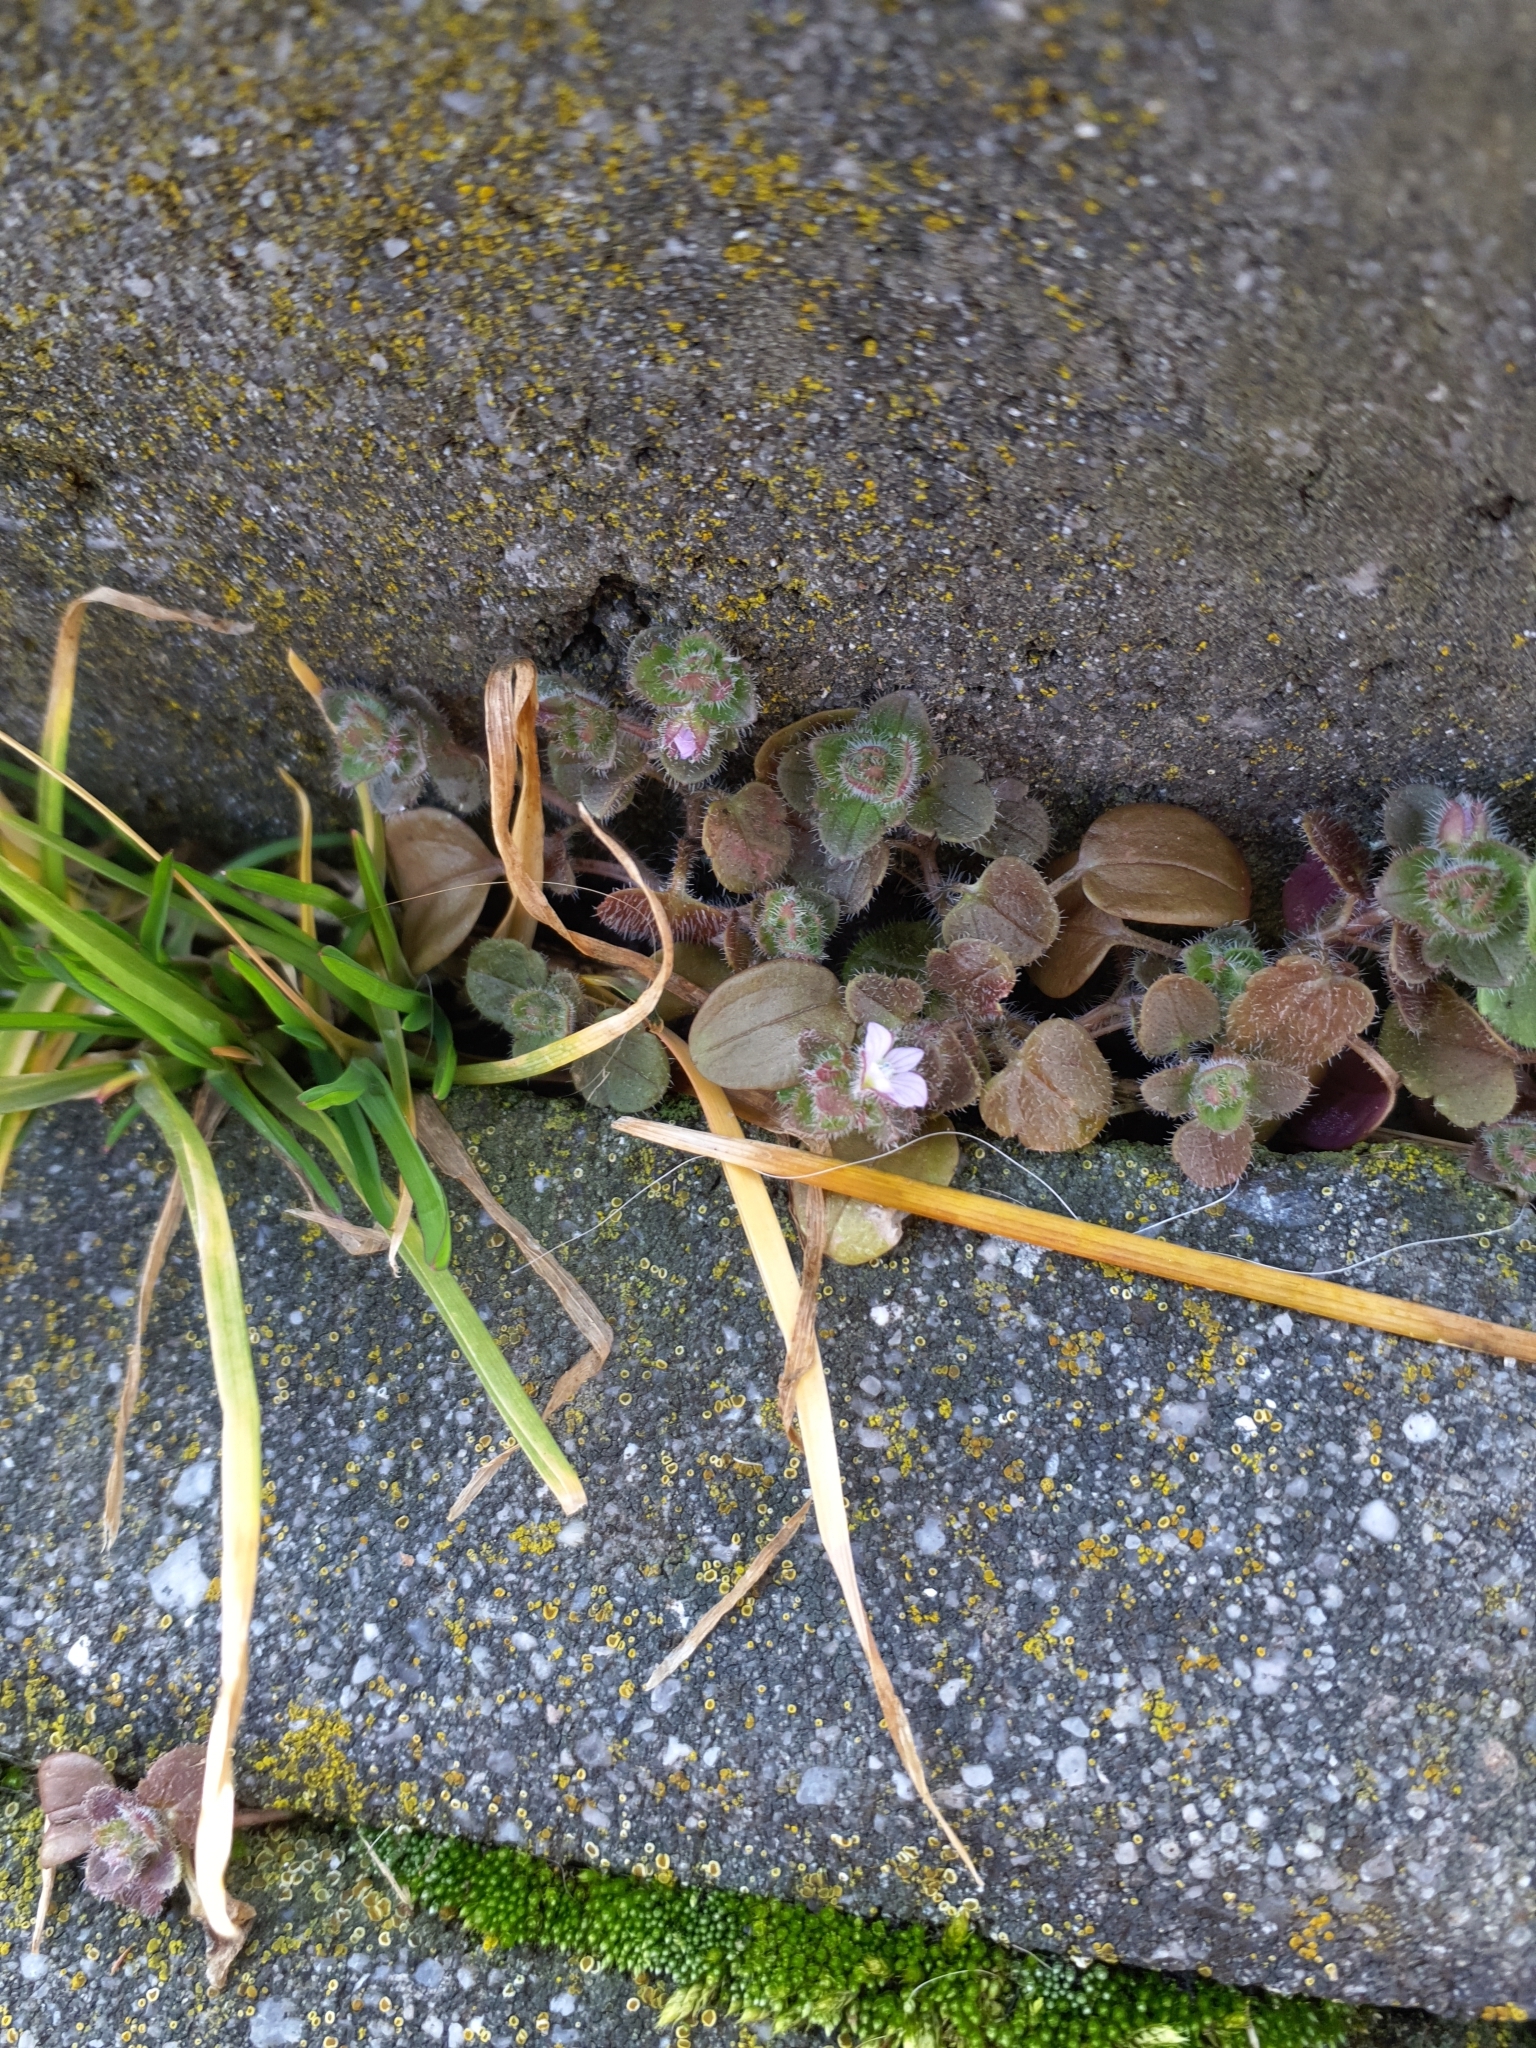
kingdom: Plantae
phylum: Tracheophyta
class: Magnoliopsida
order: Lamiales
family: Plantaginaceae
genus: Veronica
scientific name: Veronica sublobata
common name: False ivy-leaved speedwell
